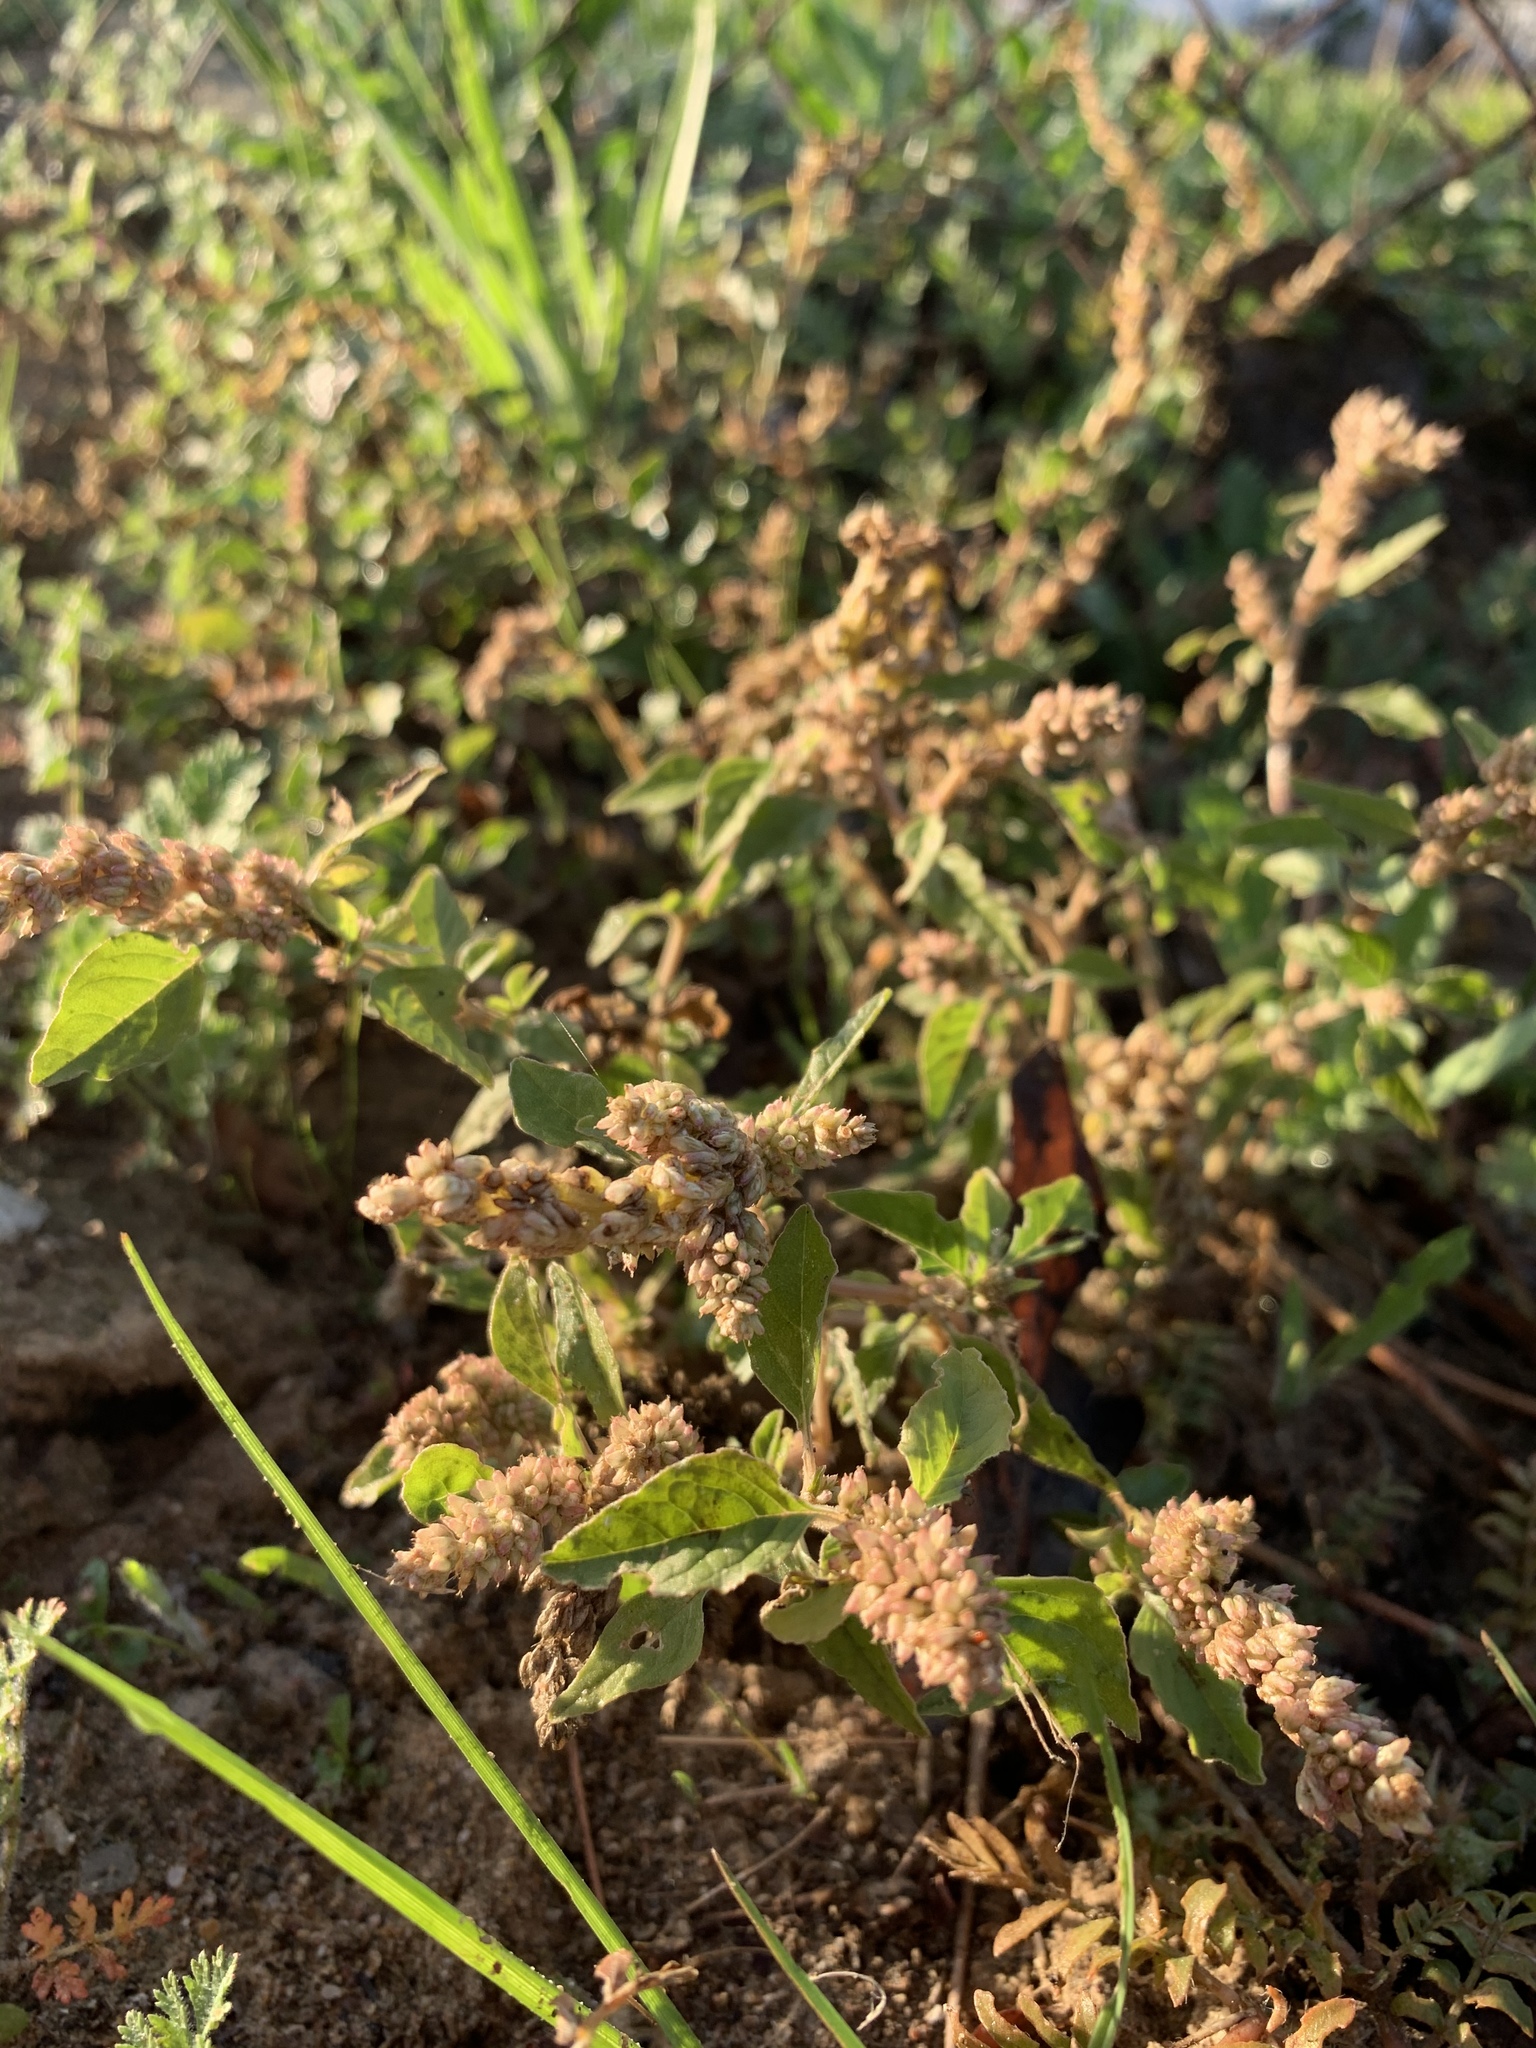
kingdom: Plantae
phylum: Tracheophyta
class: Magnoliopsida
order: Caryophyllales
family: Amaranthaceae
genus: Amaranthus
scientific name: Amaranthus deflexus
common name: Perennial pigweed
